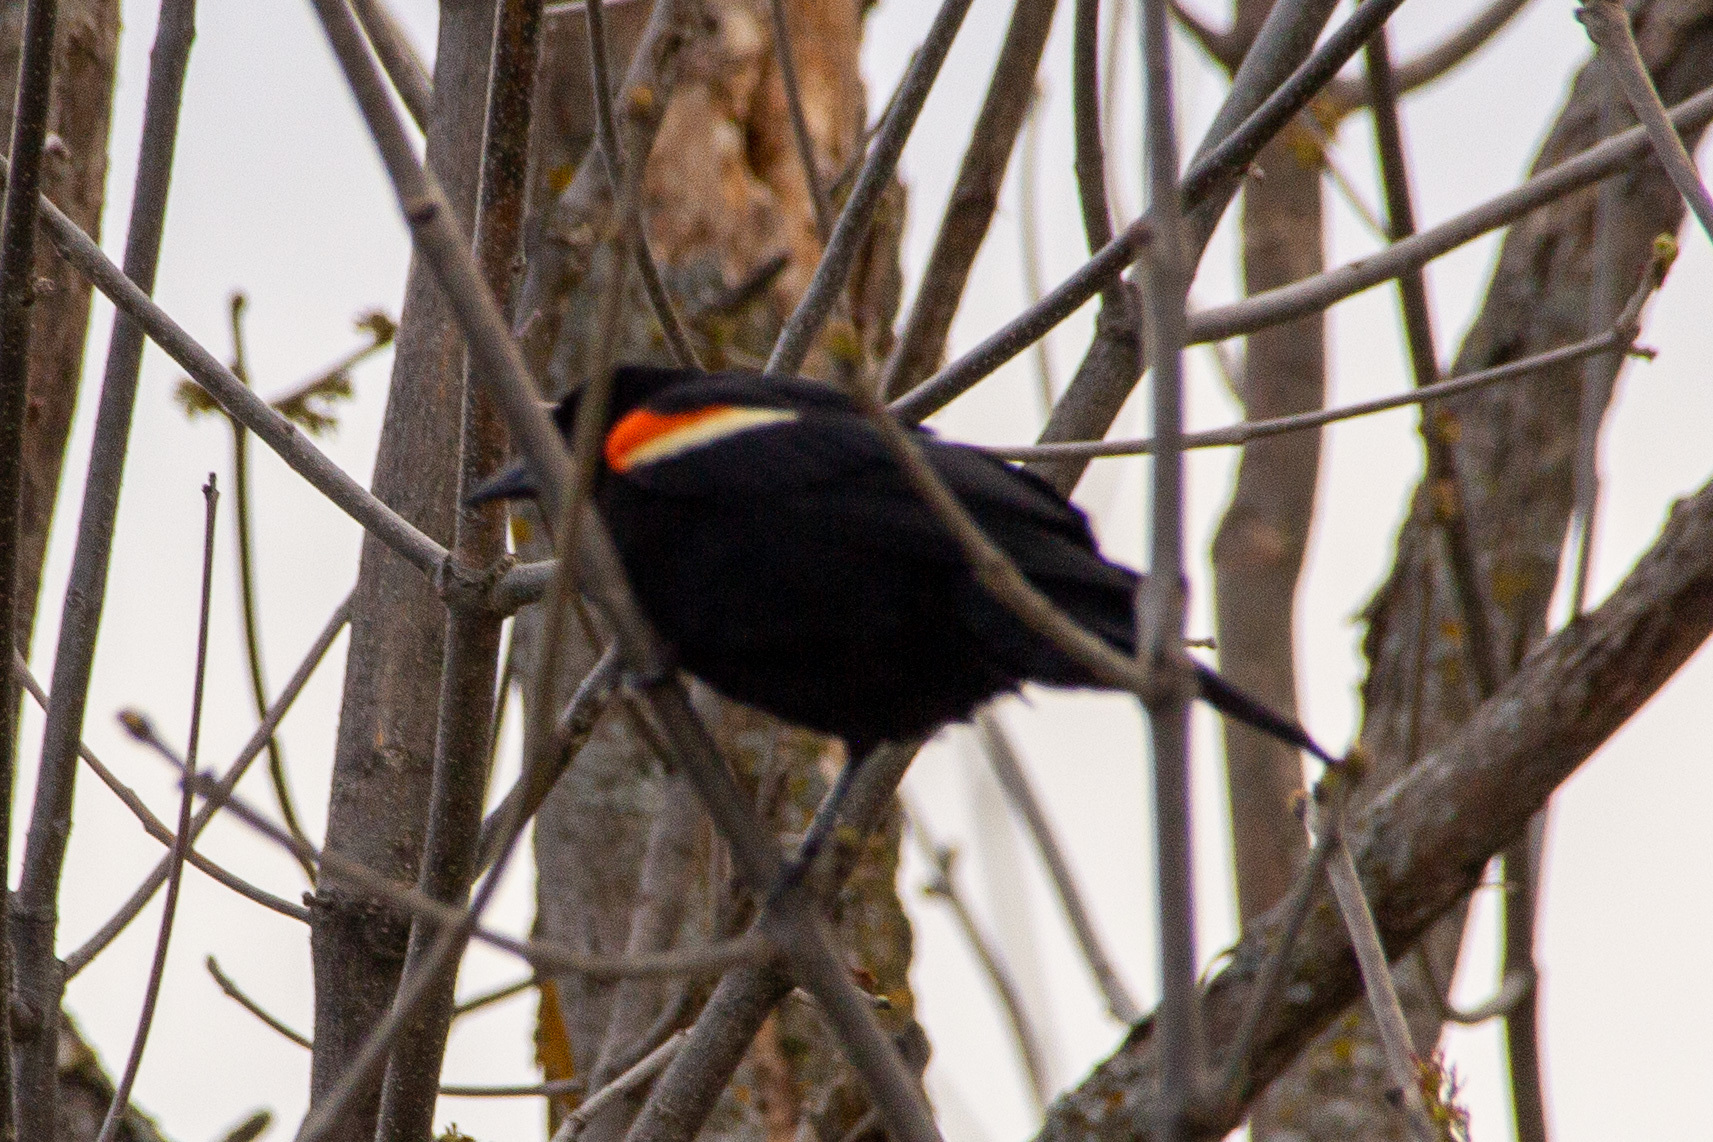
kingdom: Animalia
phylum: Chordata
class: Aves
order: Passeriformes
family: Icteridae
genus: Agelaius
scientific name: Agelaius phoeniceus
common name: Red-winged blackbird
